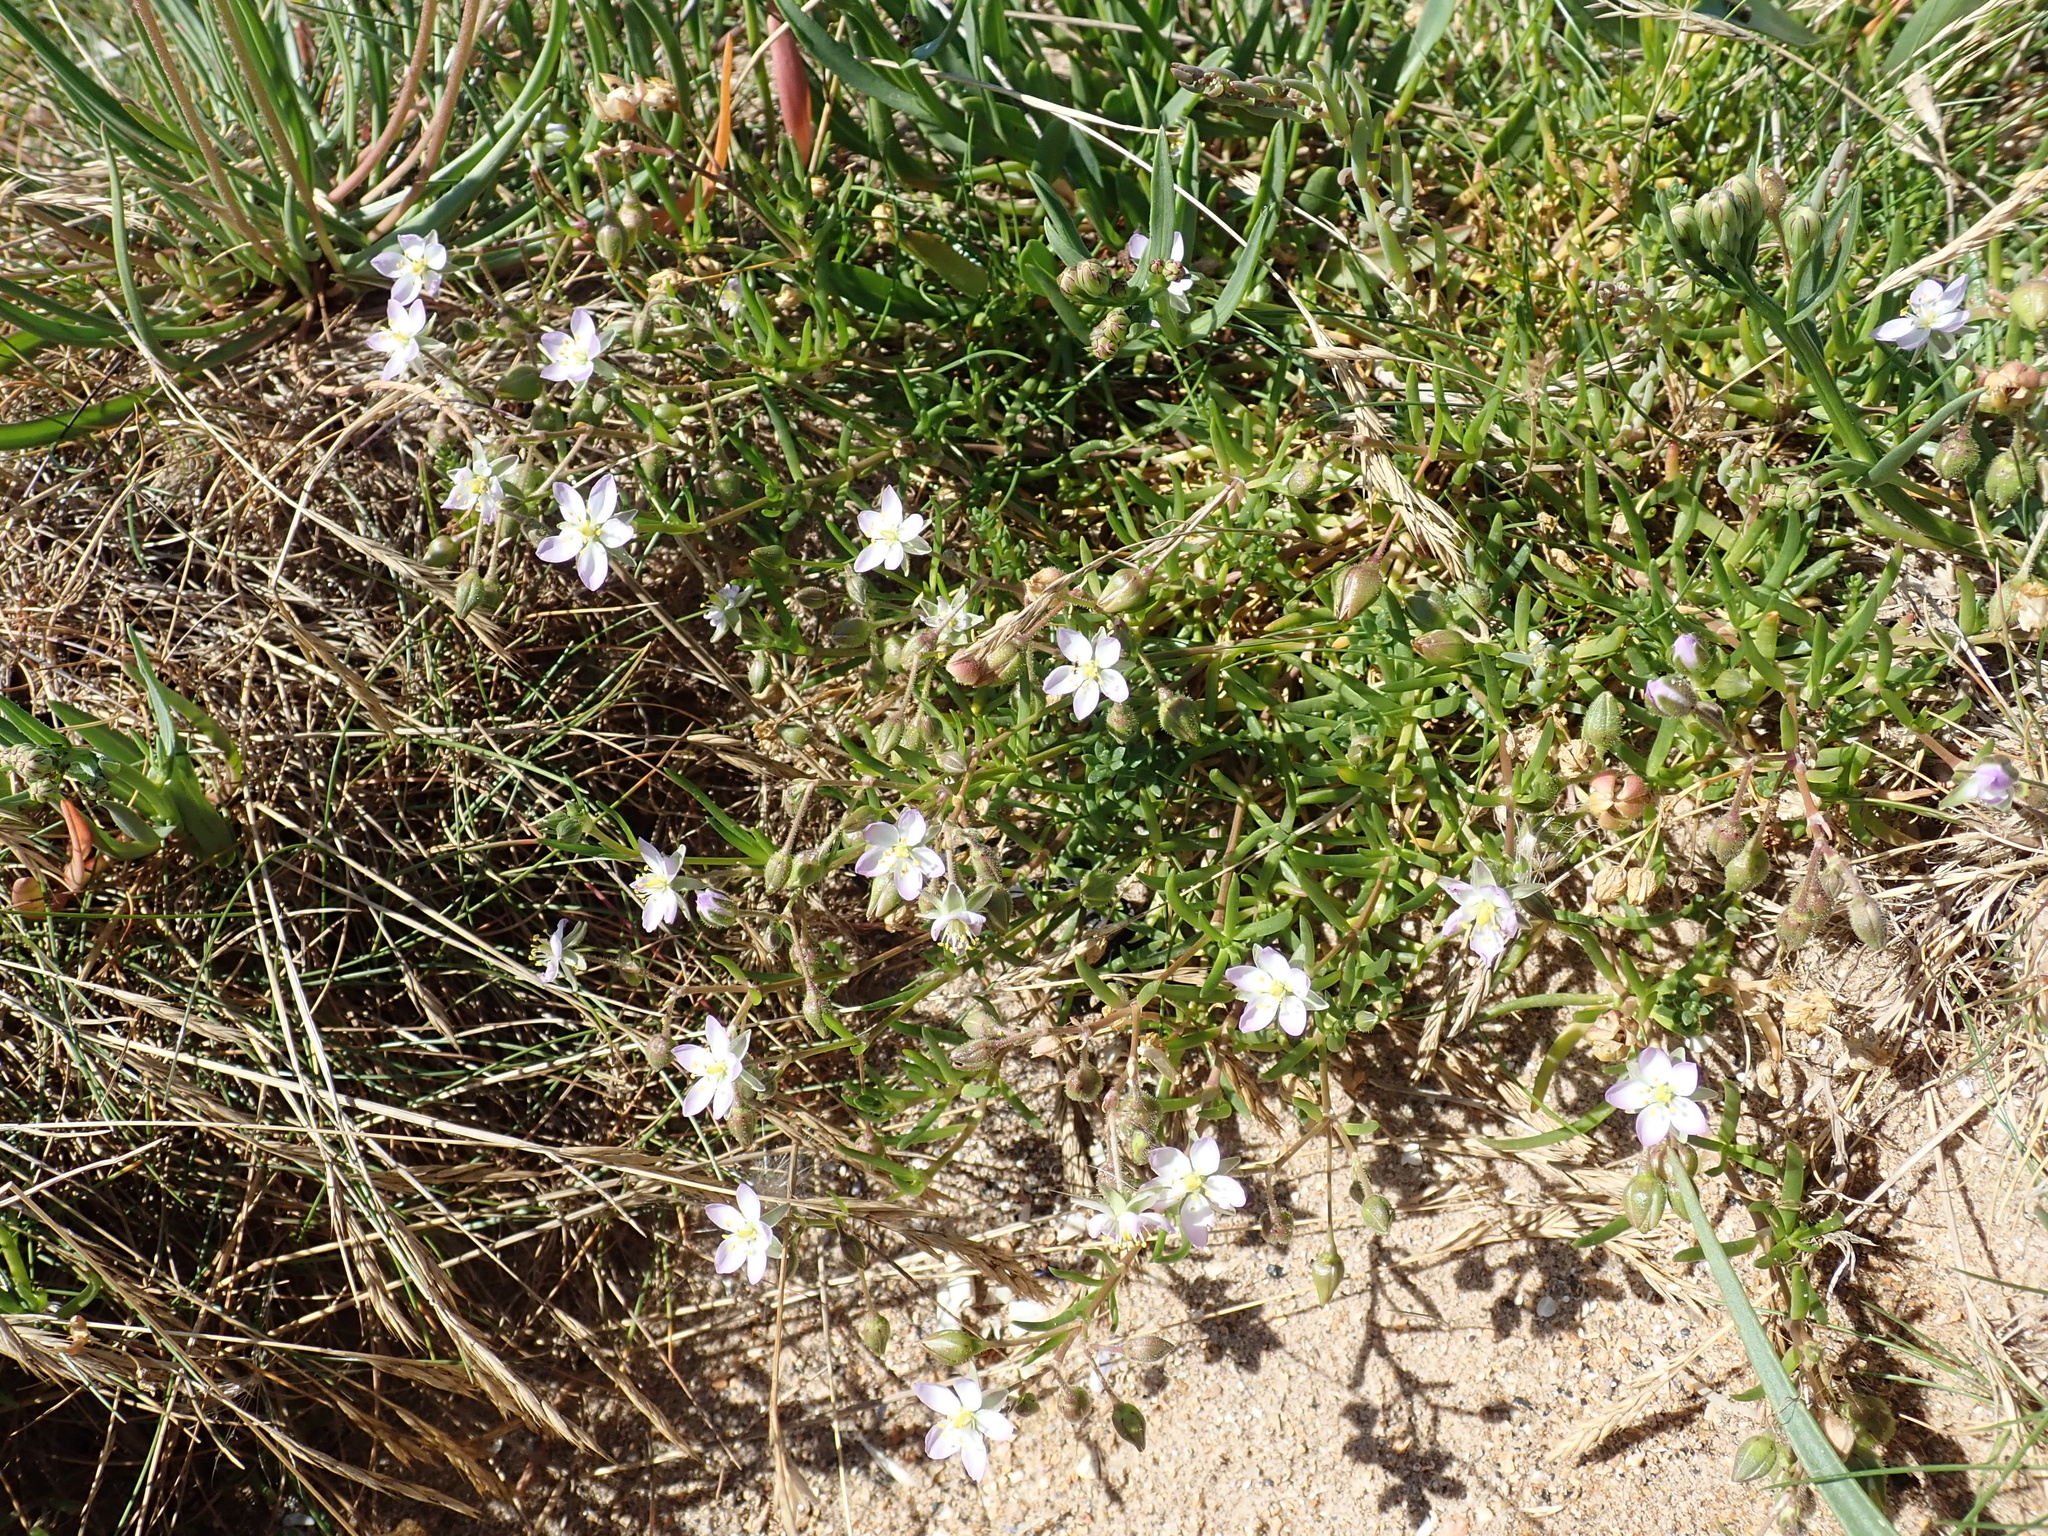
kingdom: Plantae
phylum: Tracheophyta
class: Magnoliopsida
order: Caryophyllales
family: Caryophyllaceae
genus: Spergularia
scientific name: Spergularia media
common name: Greater sea-spurrey
